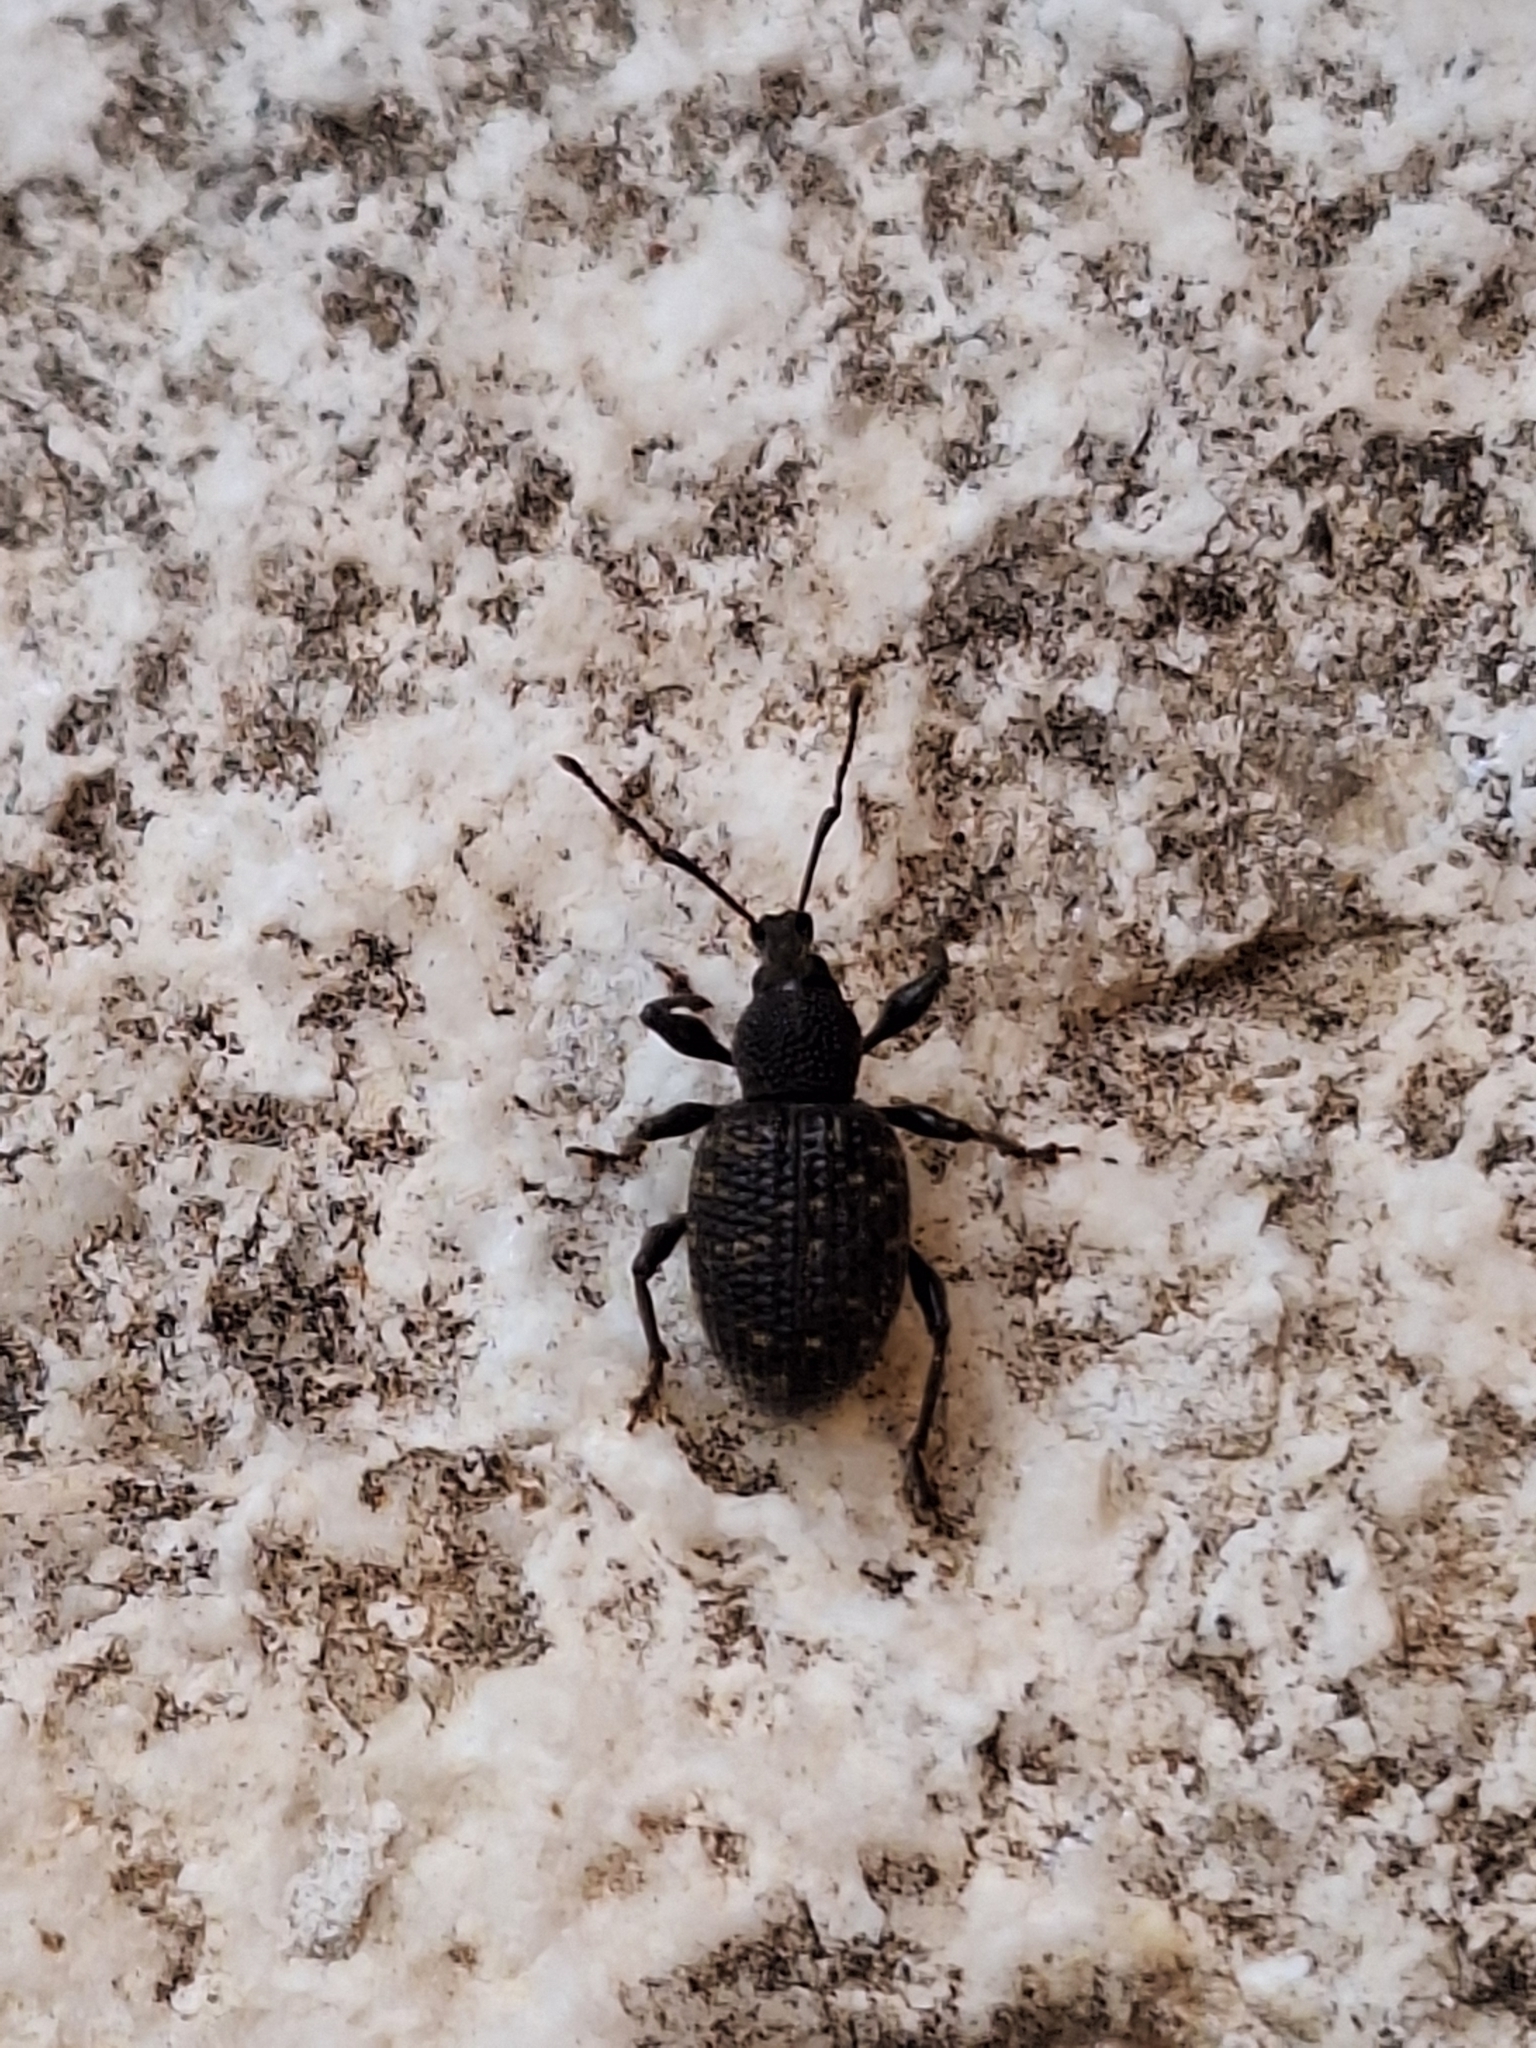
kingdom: Animalia
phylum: Arthropoda
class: Insecta
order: Coleoptera
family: Curculionidae
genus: Otiorhynchus
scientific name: Otiorhynchus sulcatus
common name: Black vine weevil
